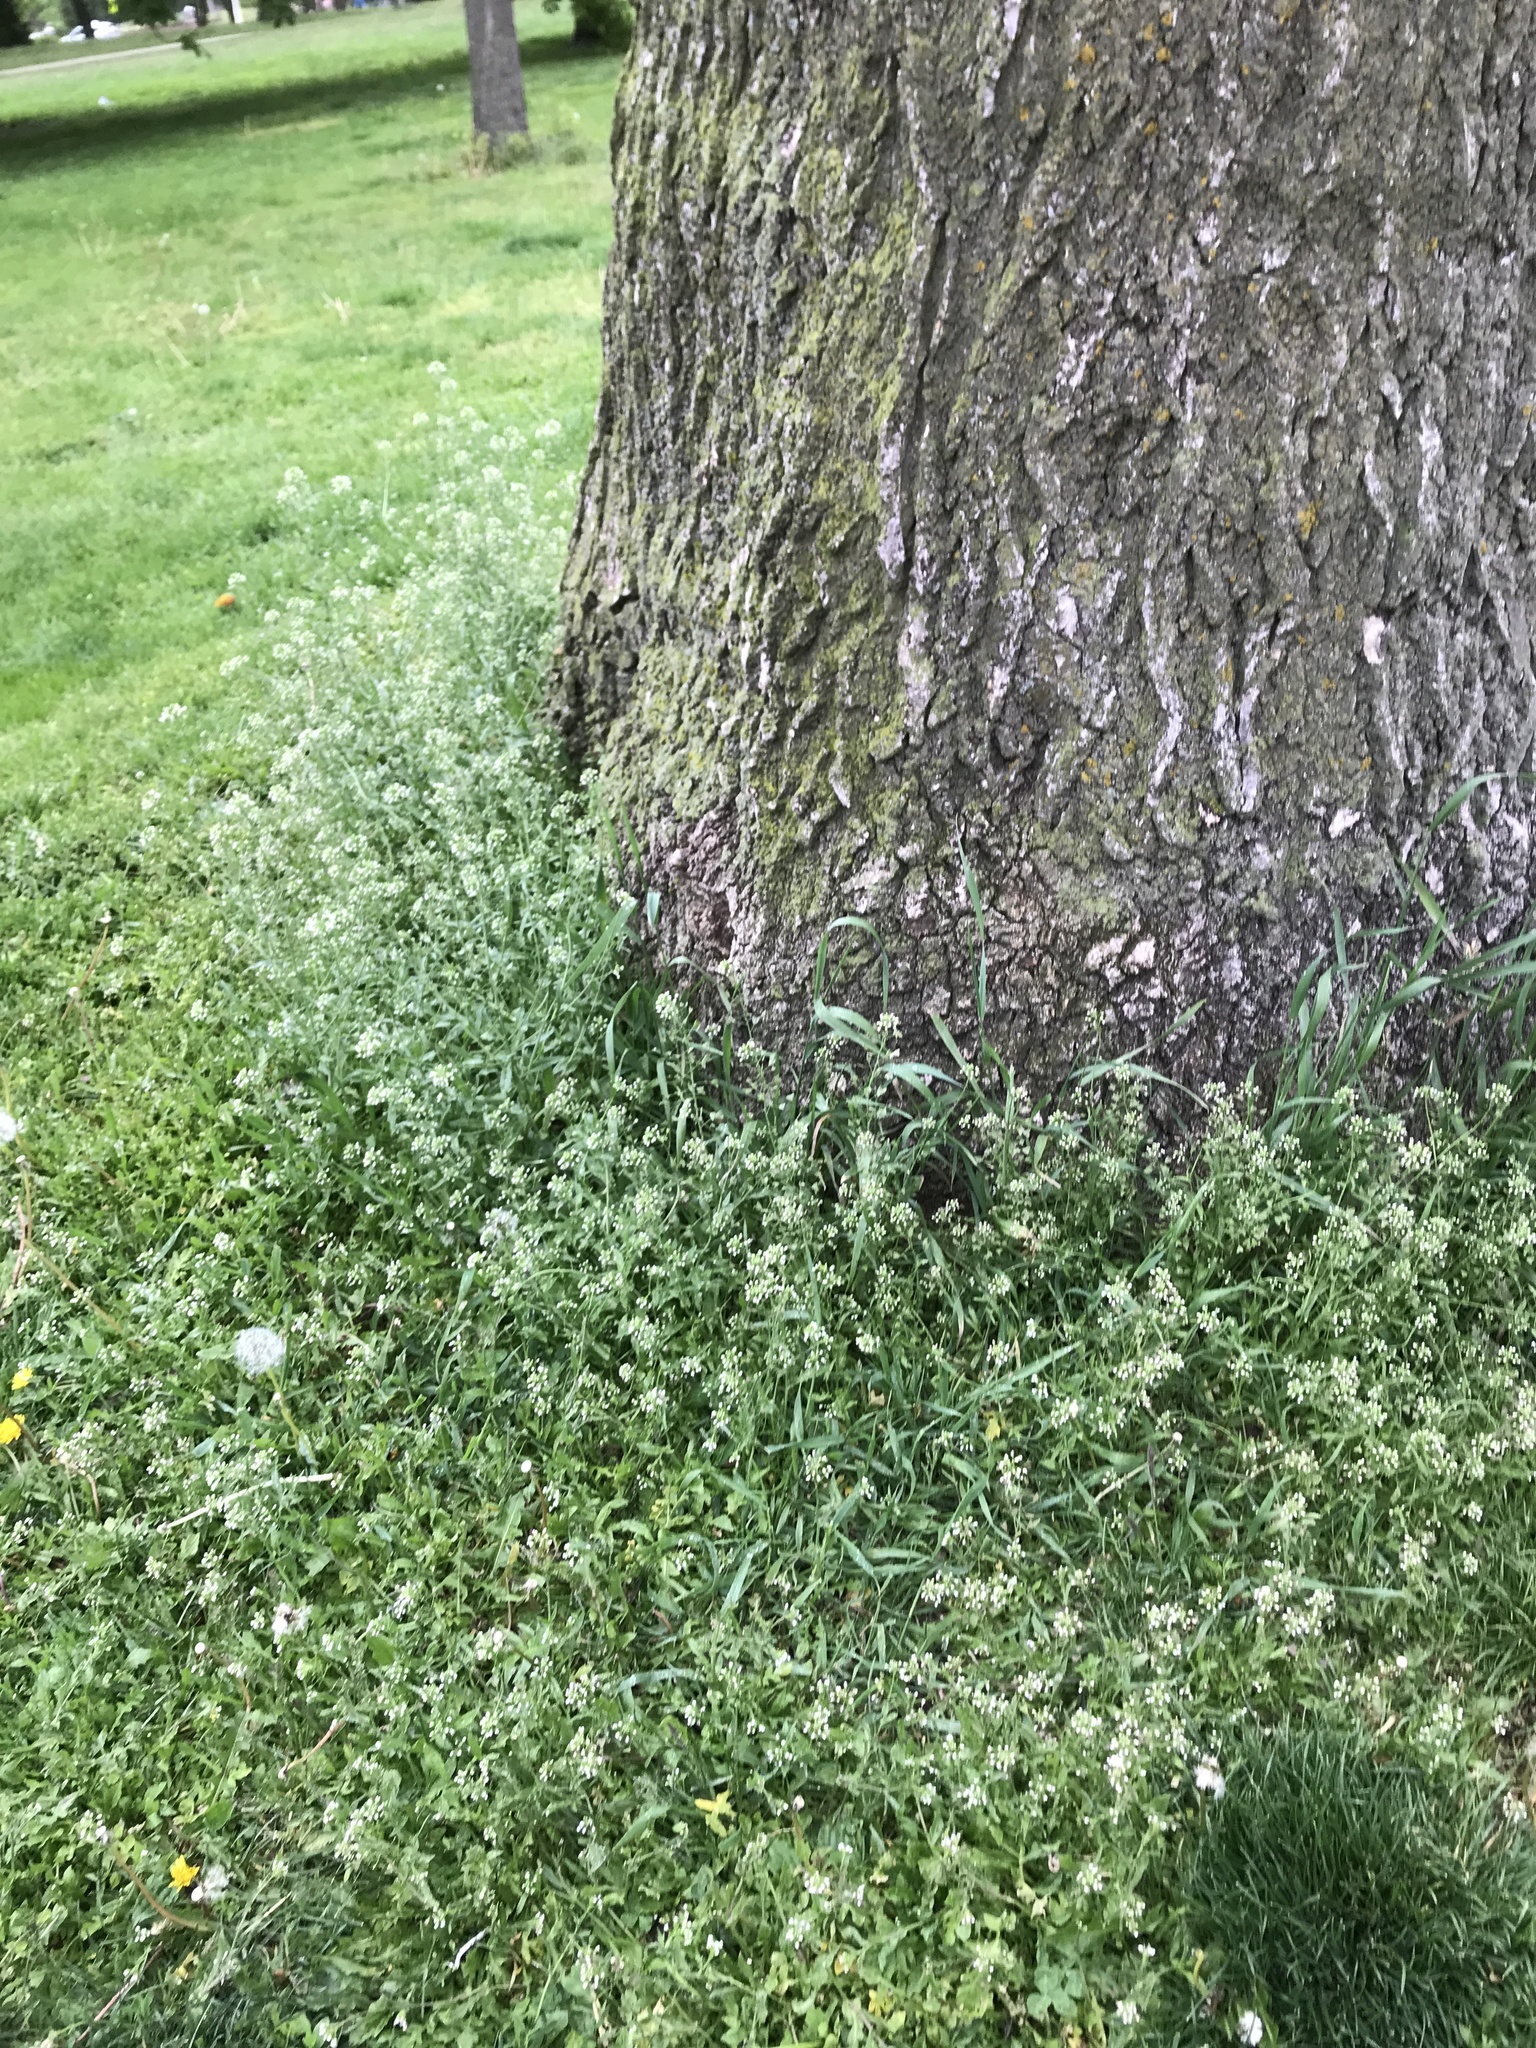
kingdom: Plantae
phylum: Tracheophyta
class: Magnoliopsida
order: Brassicales
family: Brassicaceae
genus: Capsella
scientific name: Capsella bursa-pastoris
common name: Shepherd's purse
